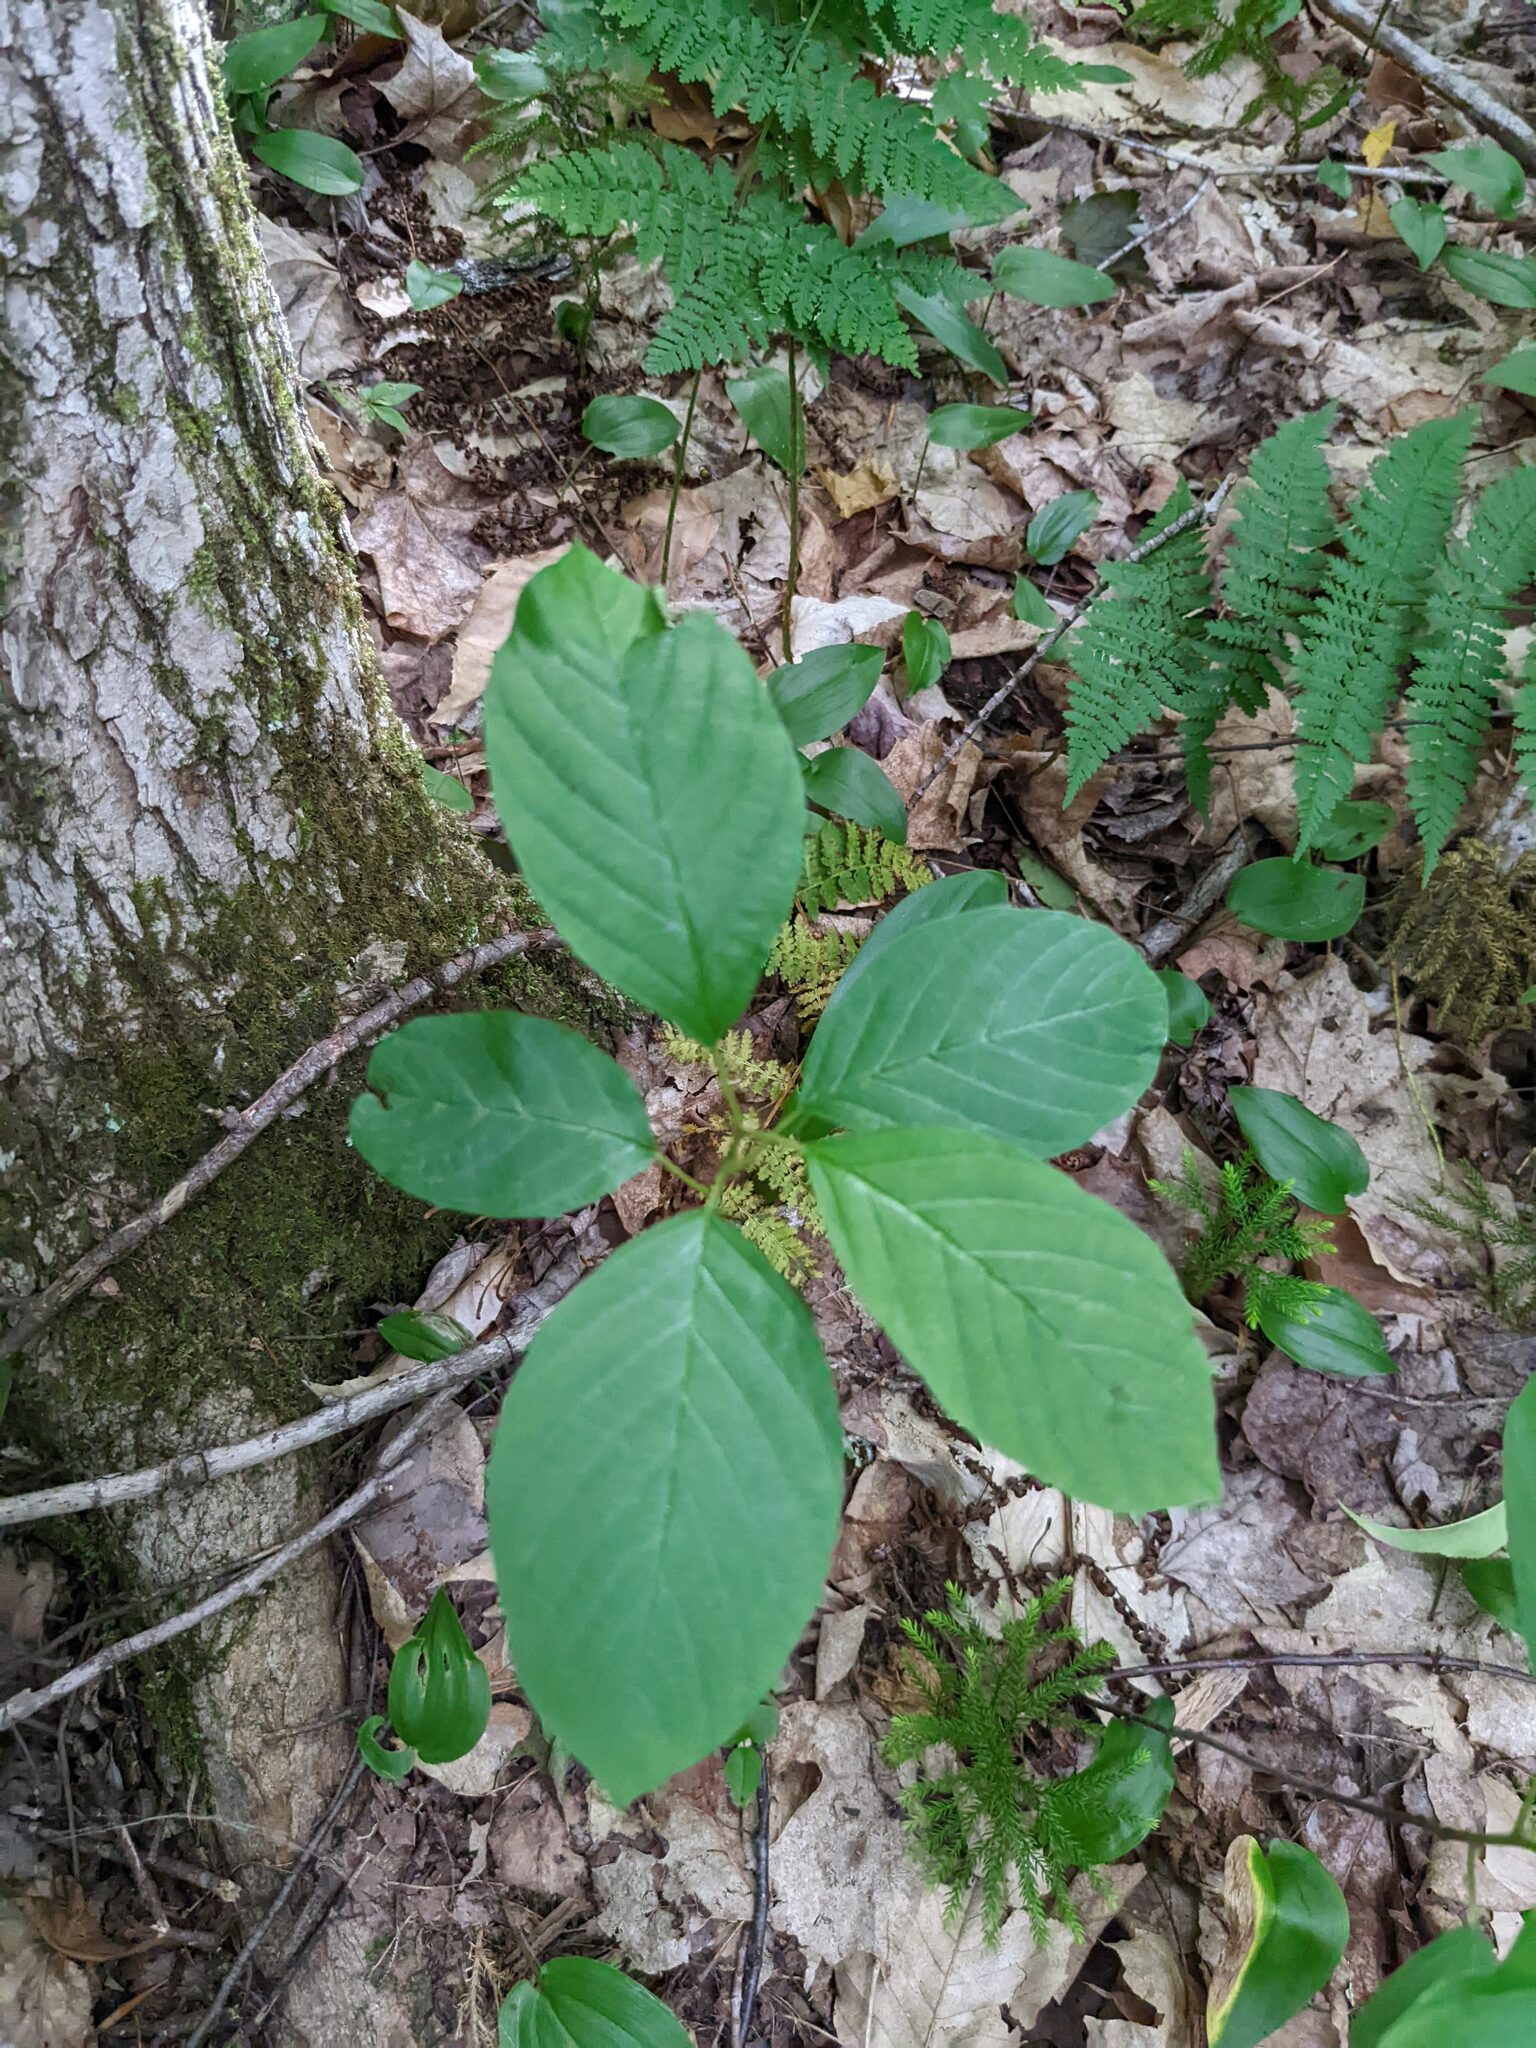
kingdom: Plantae
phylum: Tracheophyta
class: Magnoliopsida
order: Rosales
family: Rhamnaceae
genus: Frangula
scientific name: Frangula alnus
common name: Alder buckthorn
